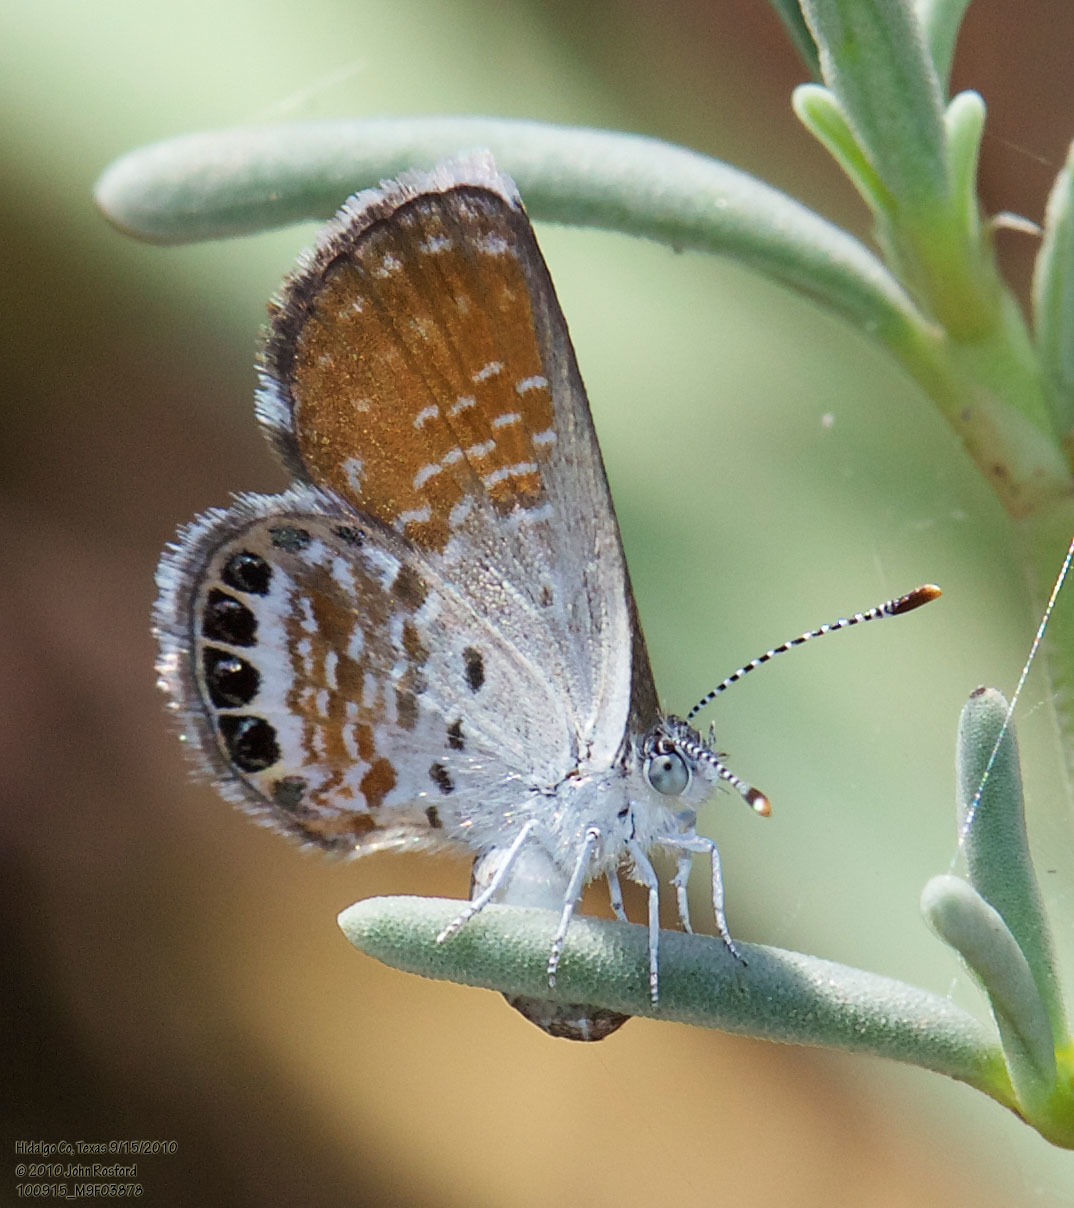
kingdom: Animalia
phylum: Arthropoda
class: Insecta
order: Lepidoptera
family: Lycaenidae
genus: Brephidium
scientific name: Brephidium exilis
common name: Pygmy blue
